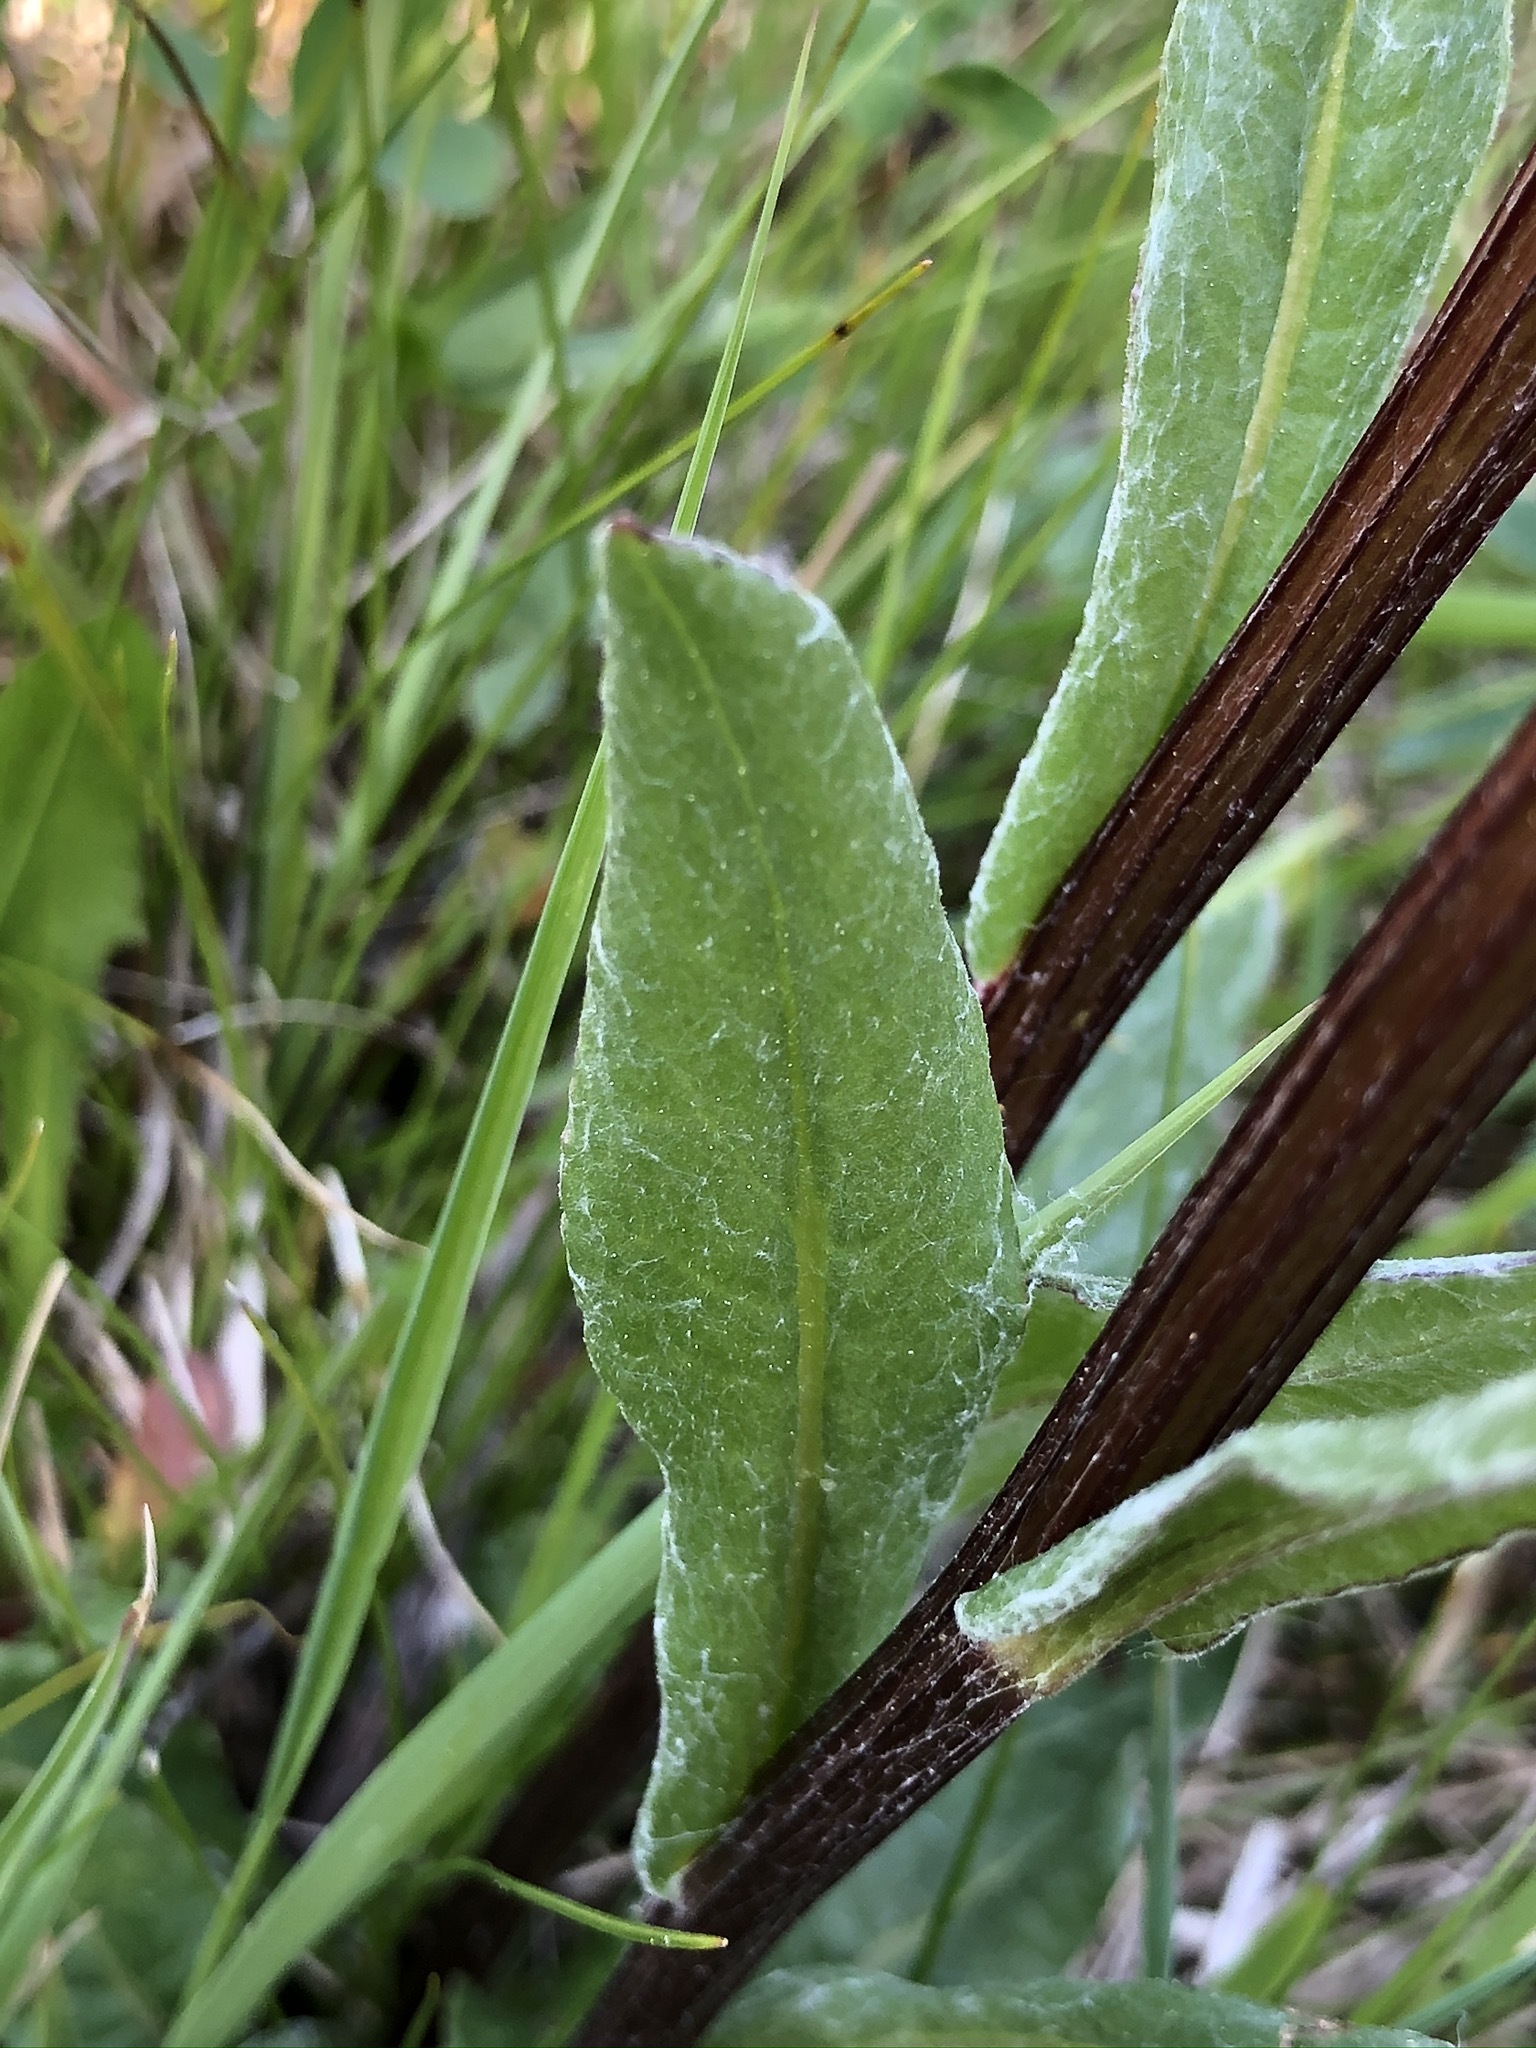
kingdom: Plantae
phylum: Tracheophyta
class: Magnoliopsida
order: Asterales
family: Asteraceae
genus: Tephroseris
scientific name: Tephroseris helenitis
